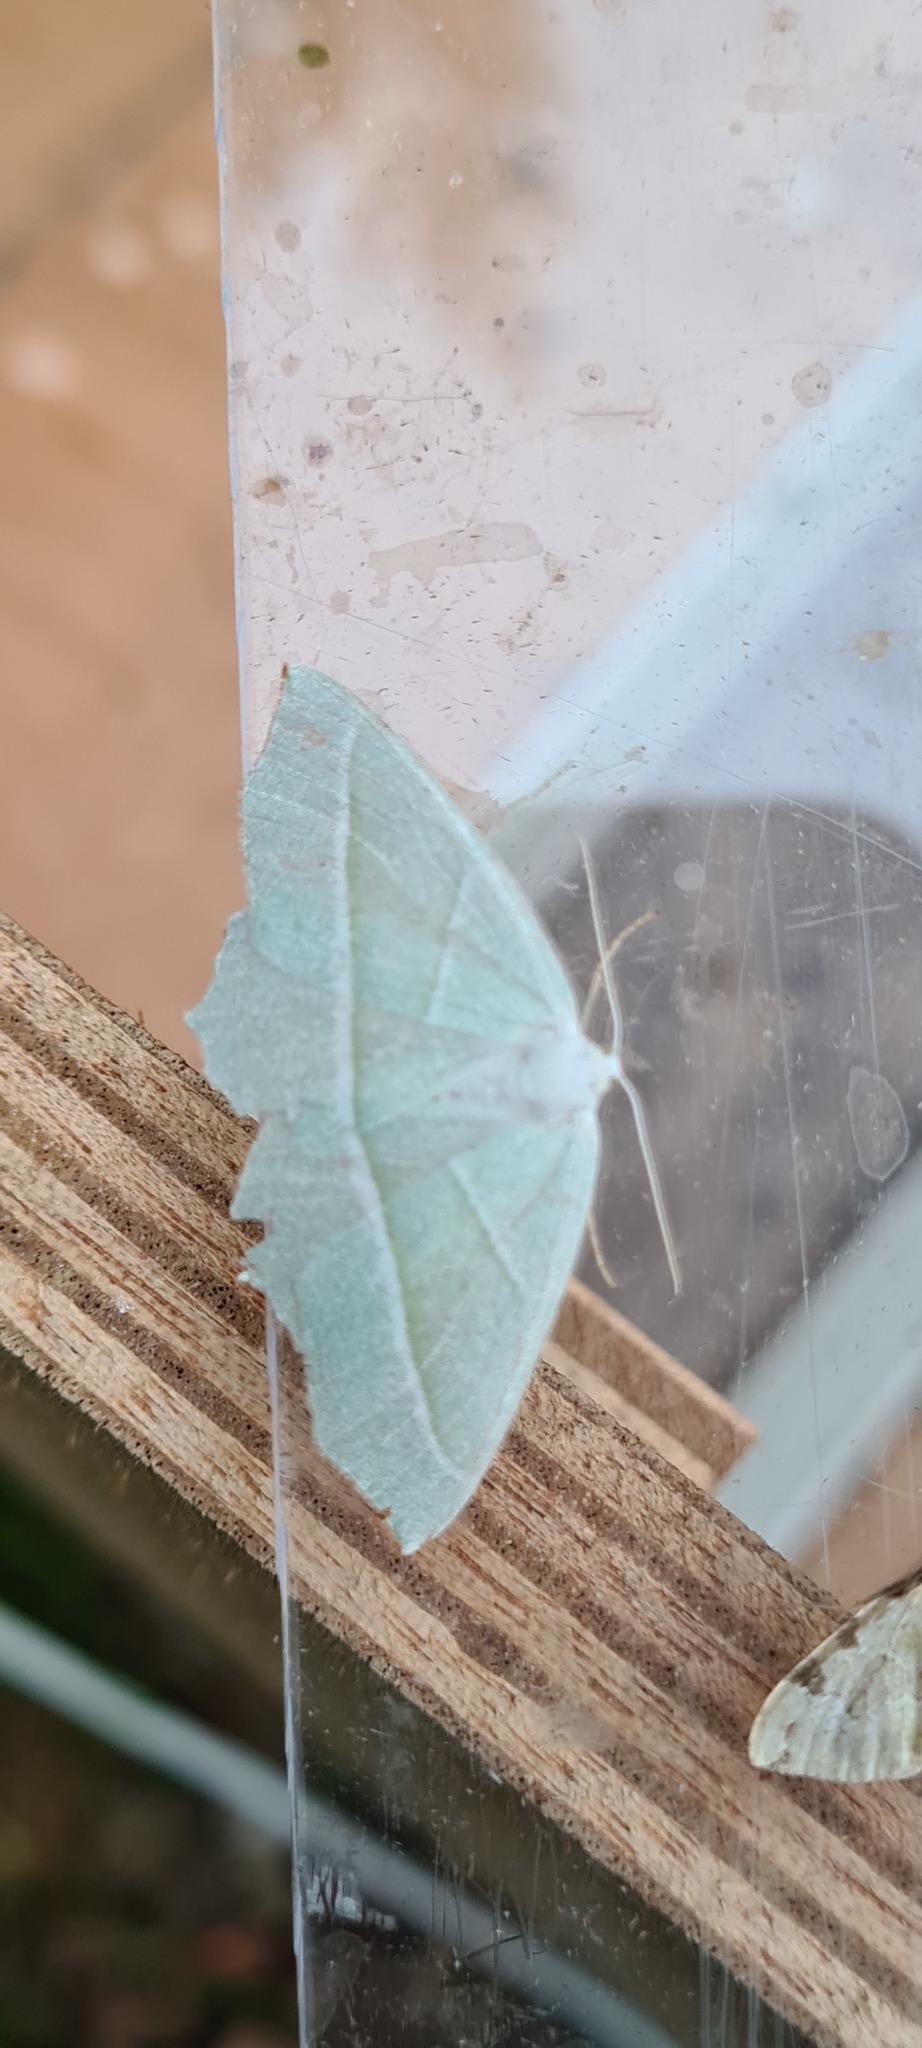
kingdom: Animalia
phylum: Arthropoda
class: Insecta
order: Lepidoptera
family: Geometridae
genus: Campaea
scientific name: Campaea margaritaria
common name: Light emerald
